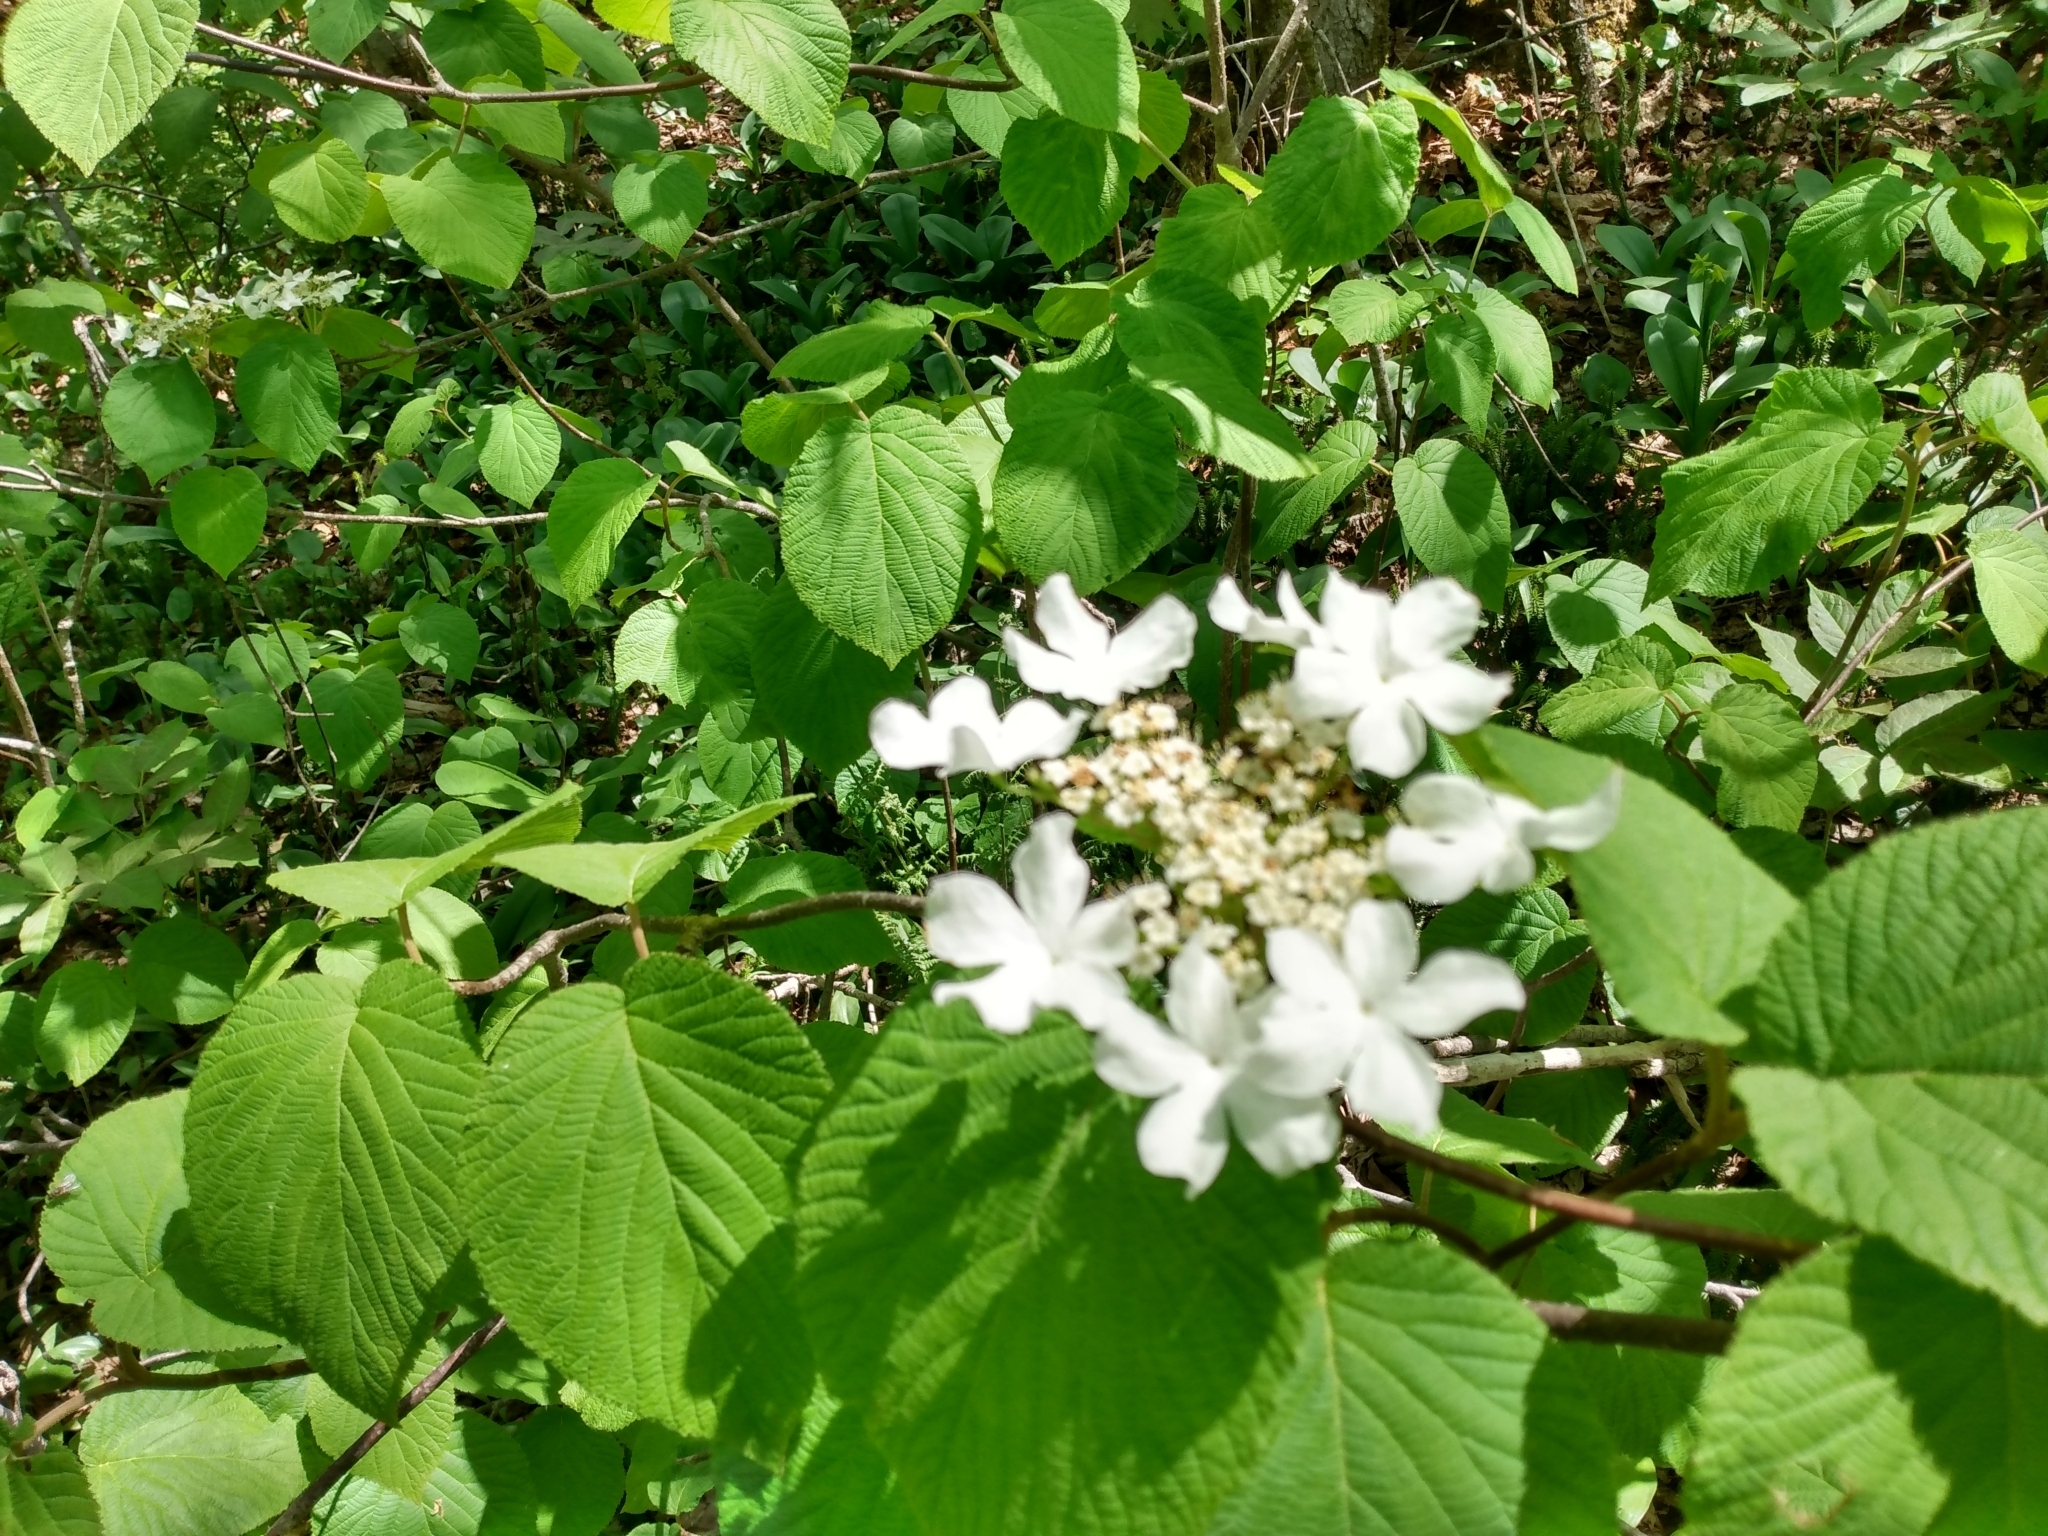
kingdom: Plantae
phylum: Tracheophyta
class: Magnoliopsida
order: Dipsacales
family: Viburnaceae
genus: Viburnum
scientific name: Viburnum lantanoides
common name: Hobblebush
